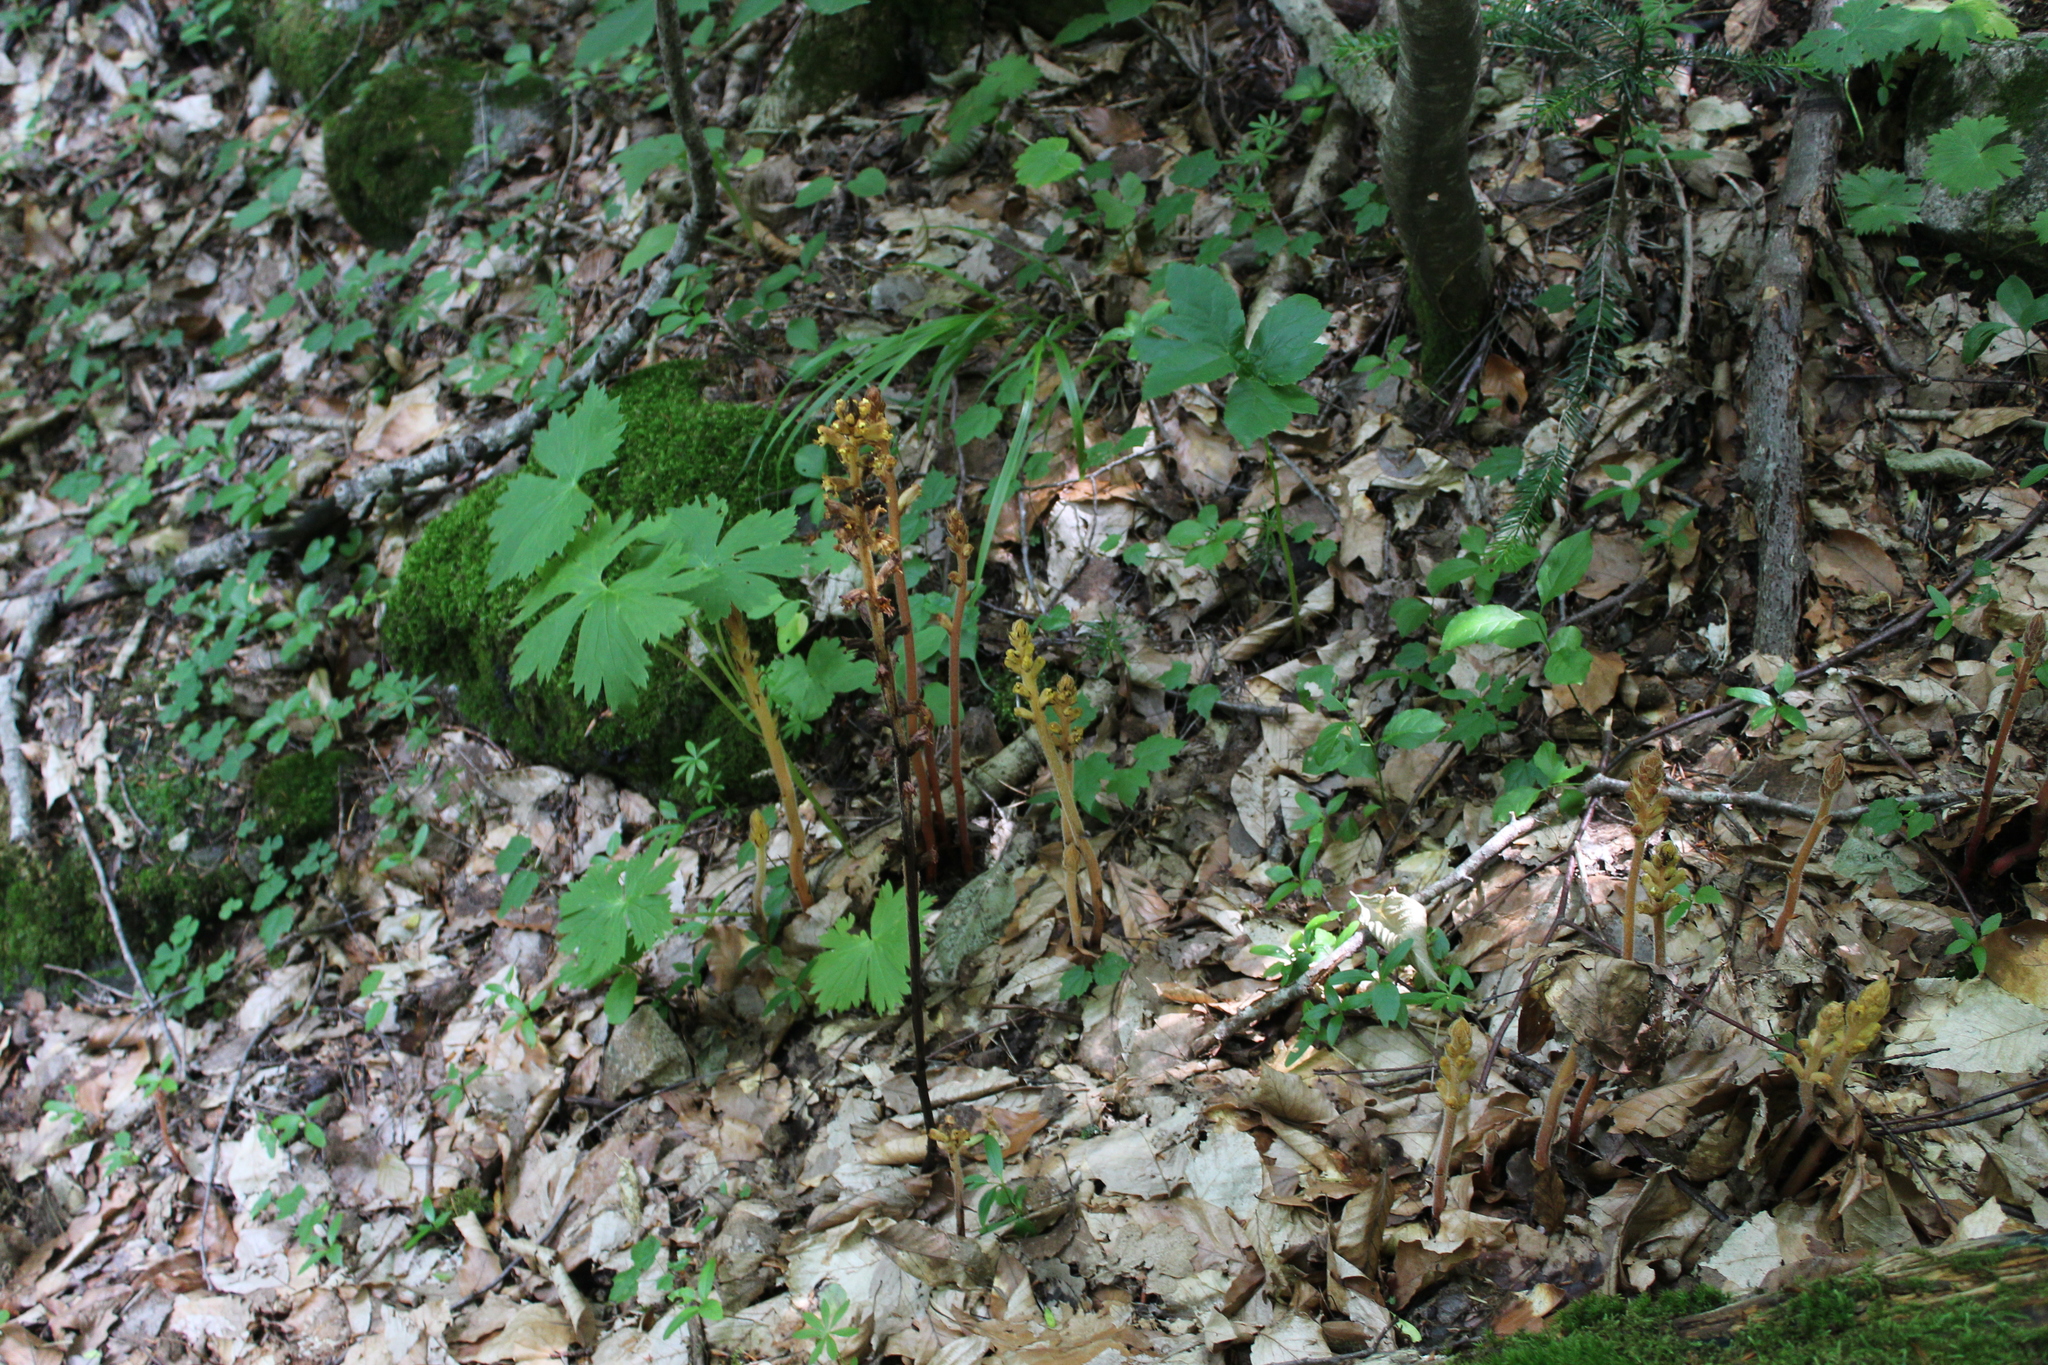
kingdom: Plantae
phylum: Tracheophyta
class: Magnoliopsida
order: Lamiales
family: Orobanchaceae
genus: Orobanche
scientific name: Orobanche laxissima
